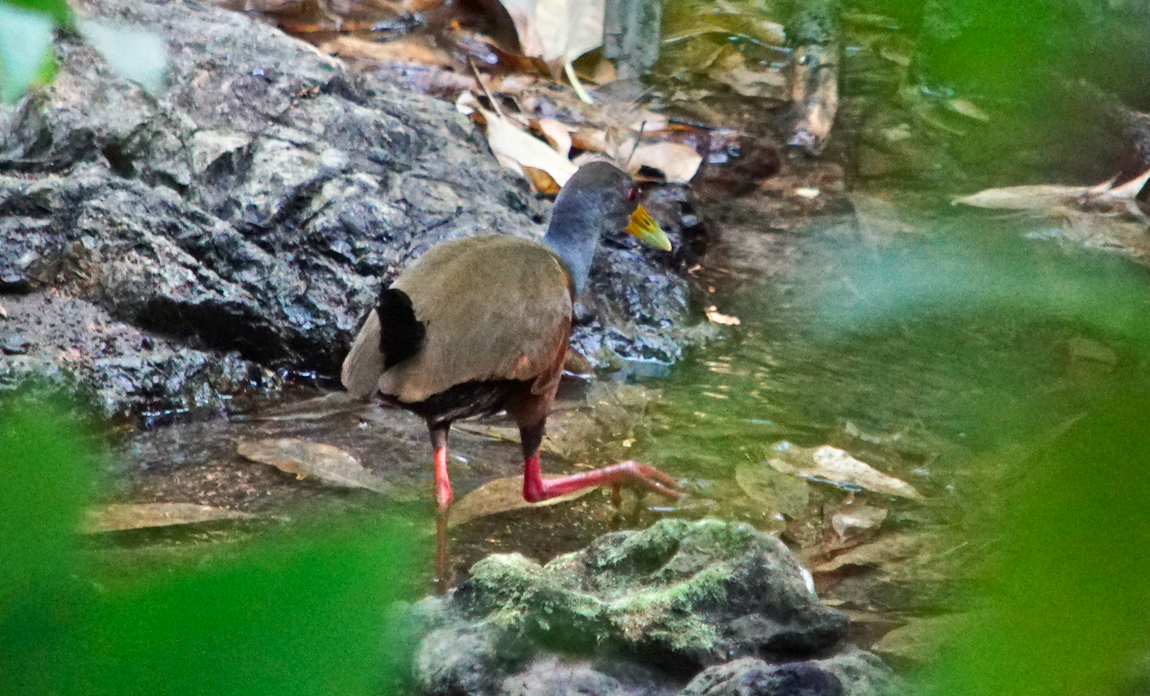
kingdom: Animalia
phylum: Chordata
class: Aves
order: Gruiformes
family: Rallidae
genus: Aramides
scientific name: Aramides cajanea
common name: Gray-necked wood-rail
